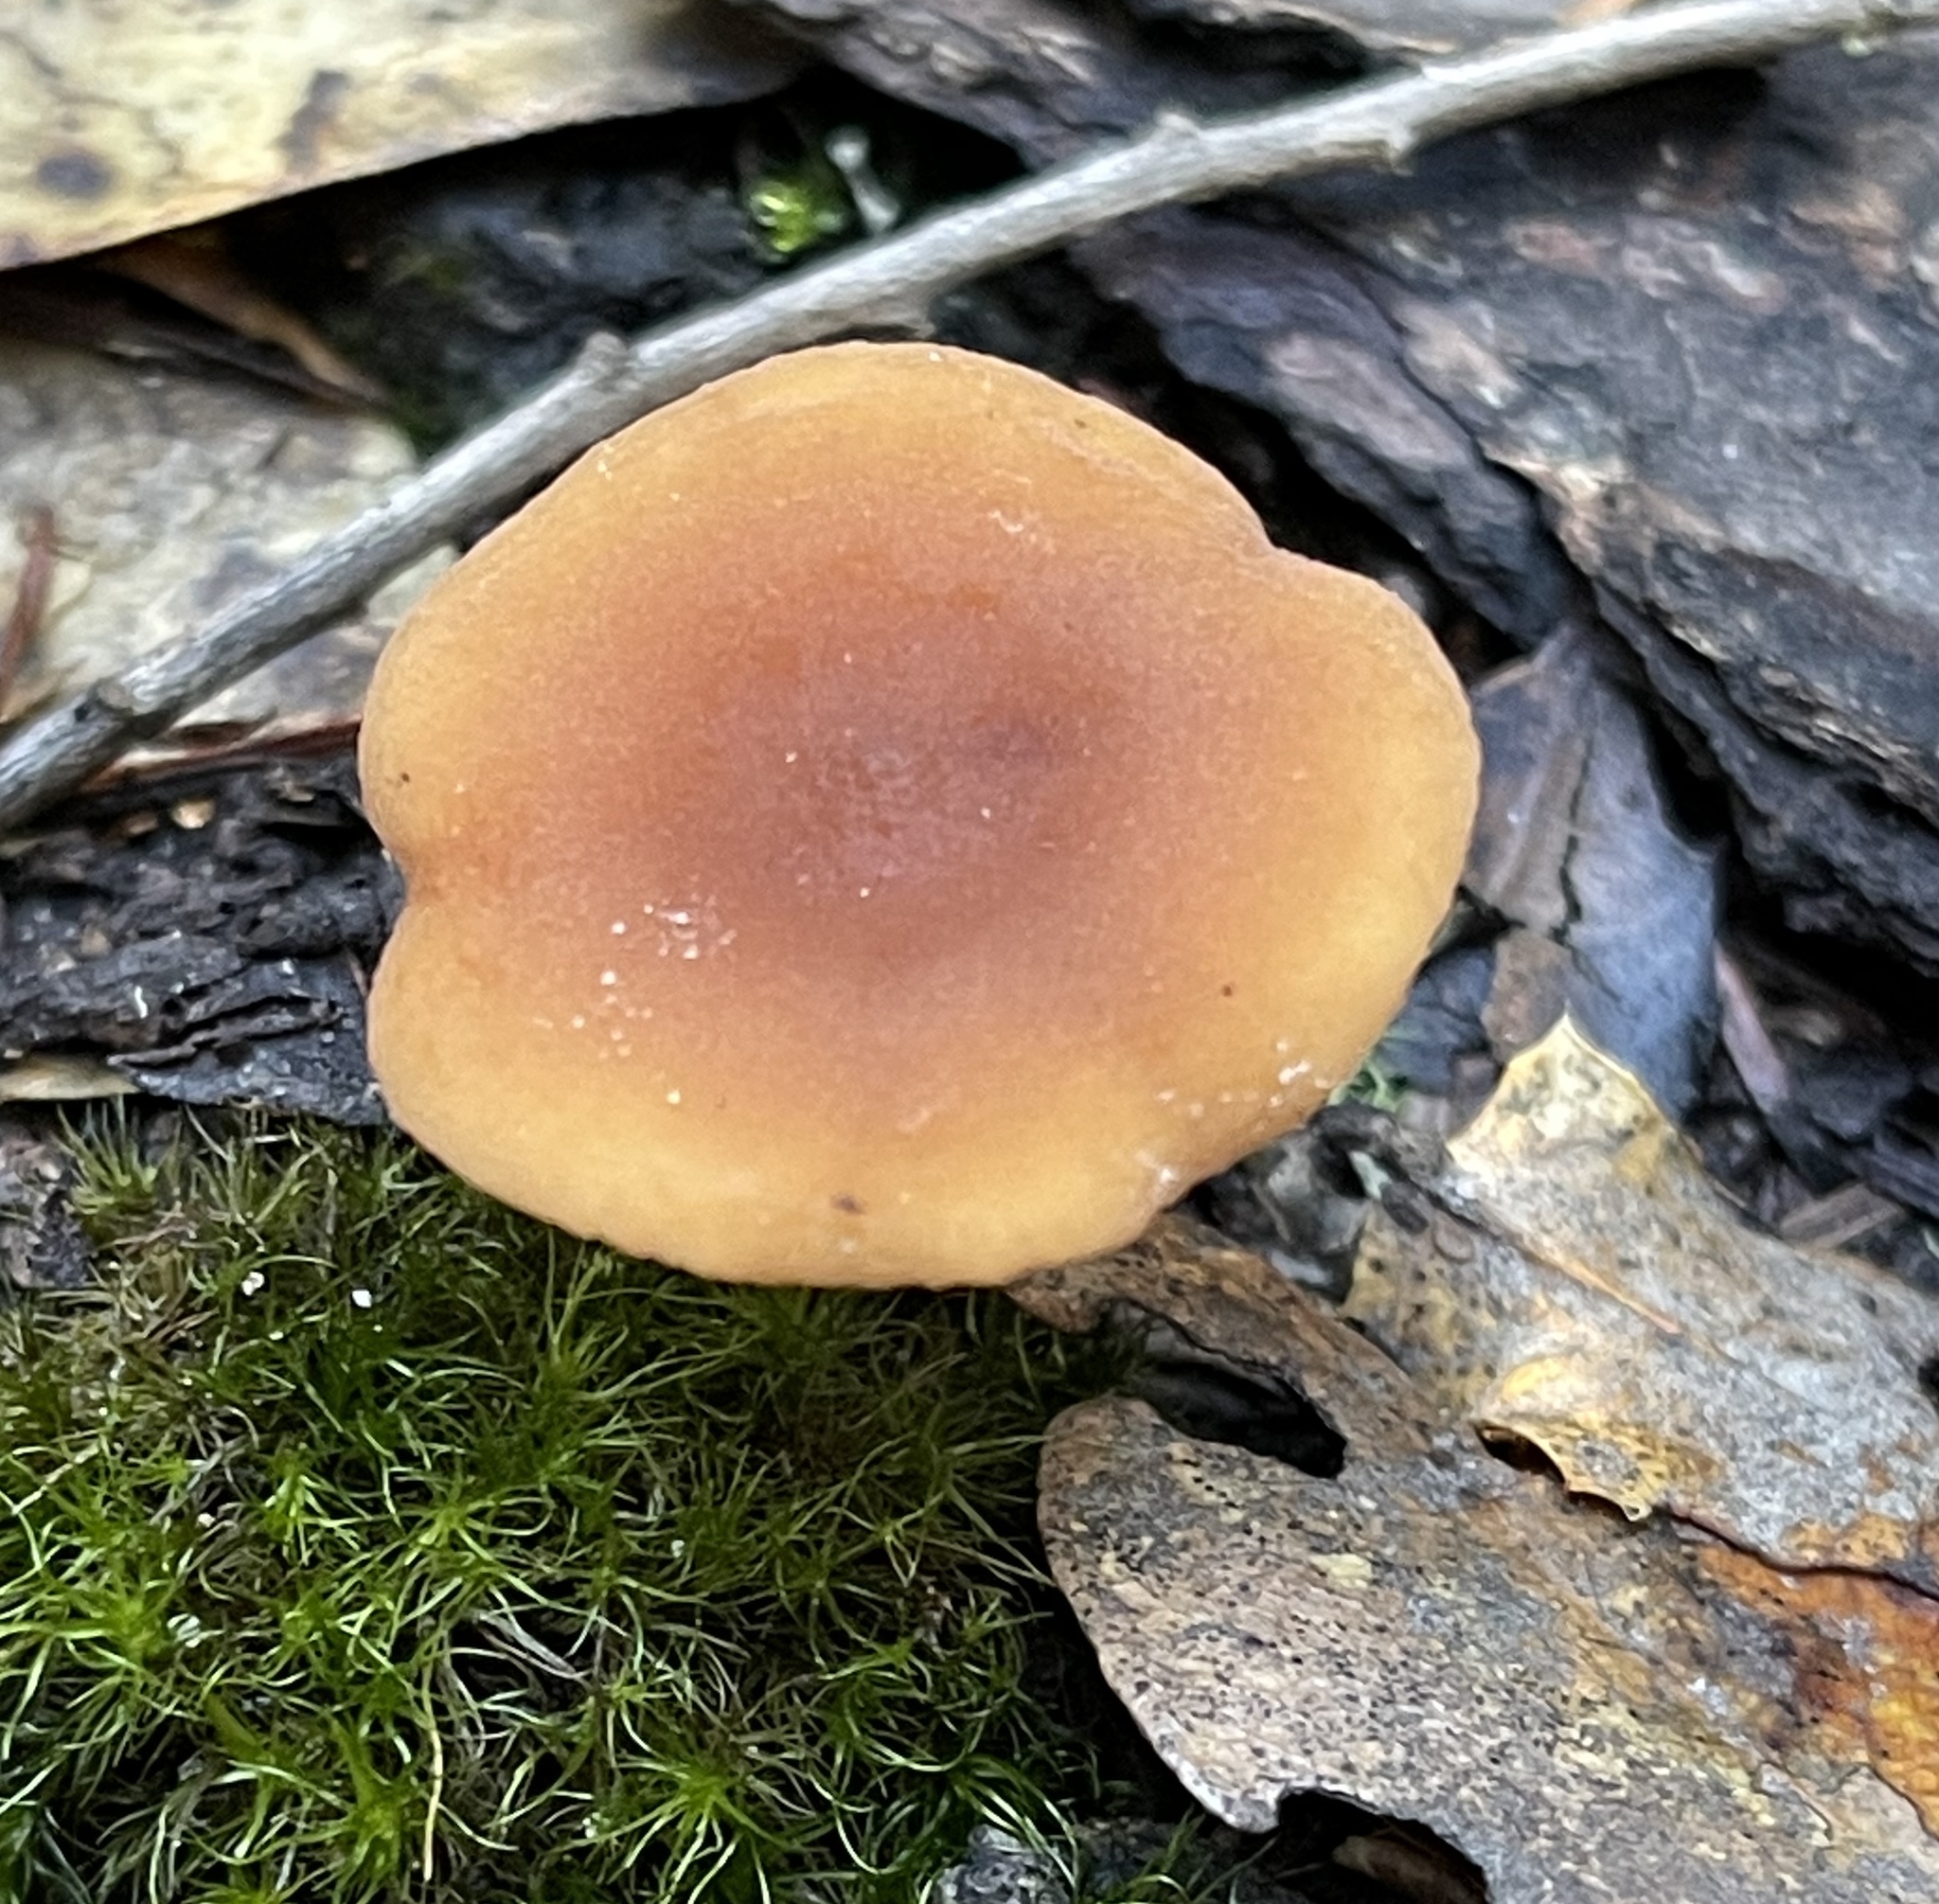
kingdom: Fungi
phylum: Basidiomycota
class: Agaricomycetes
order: Russulales
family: Russulaceae
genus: Lactarius
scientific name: Lactarius rubidus
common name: Candy cap
